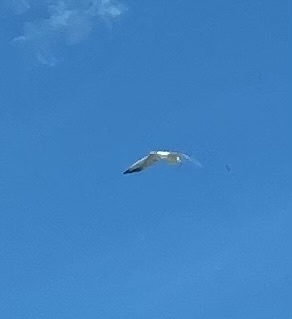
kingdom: Animalia
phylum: Chordata
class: Aves
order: Charadriiformes
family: Laridae
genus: Larus
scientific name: Larus
